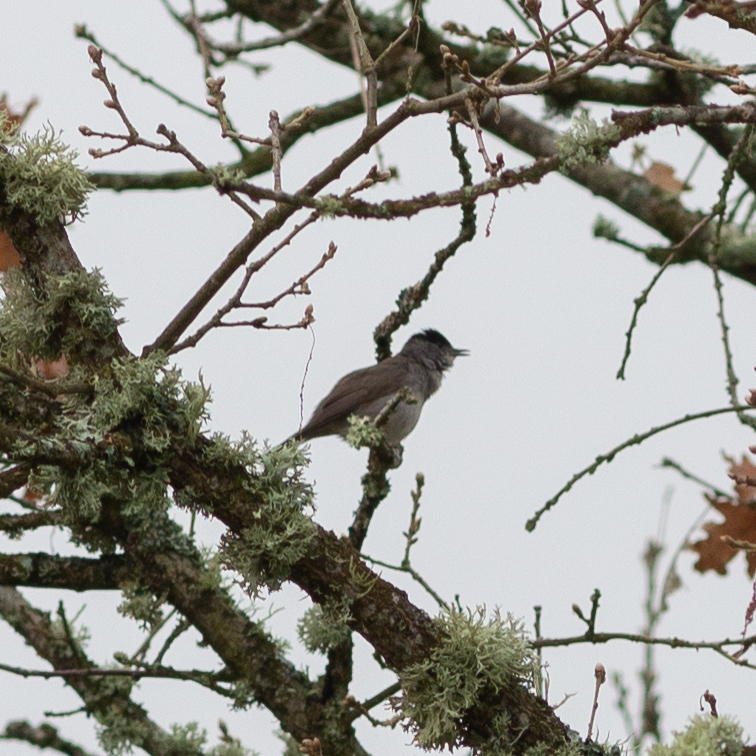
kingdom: Animalia
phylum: Chordata
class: Aves
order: Passeriformes
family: Sylviidae
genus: Sylvia
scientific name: Sylvia atricapilla
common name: Eurasian blackcap
